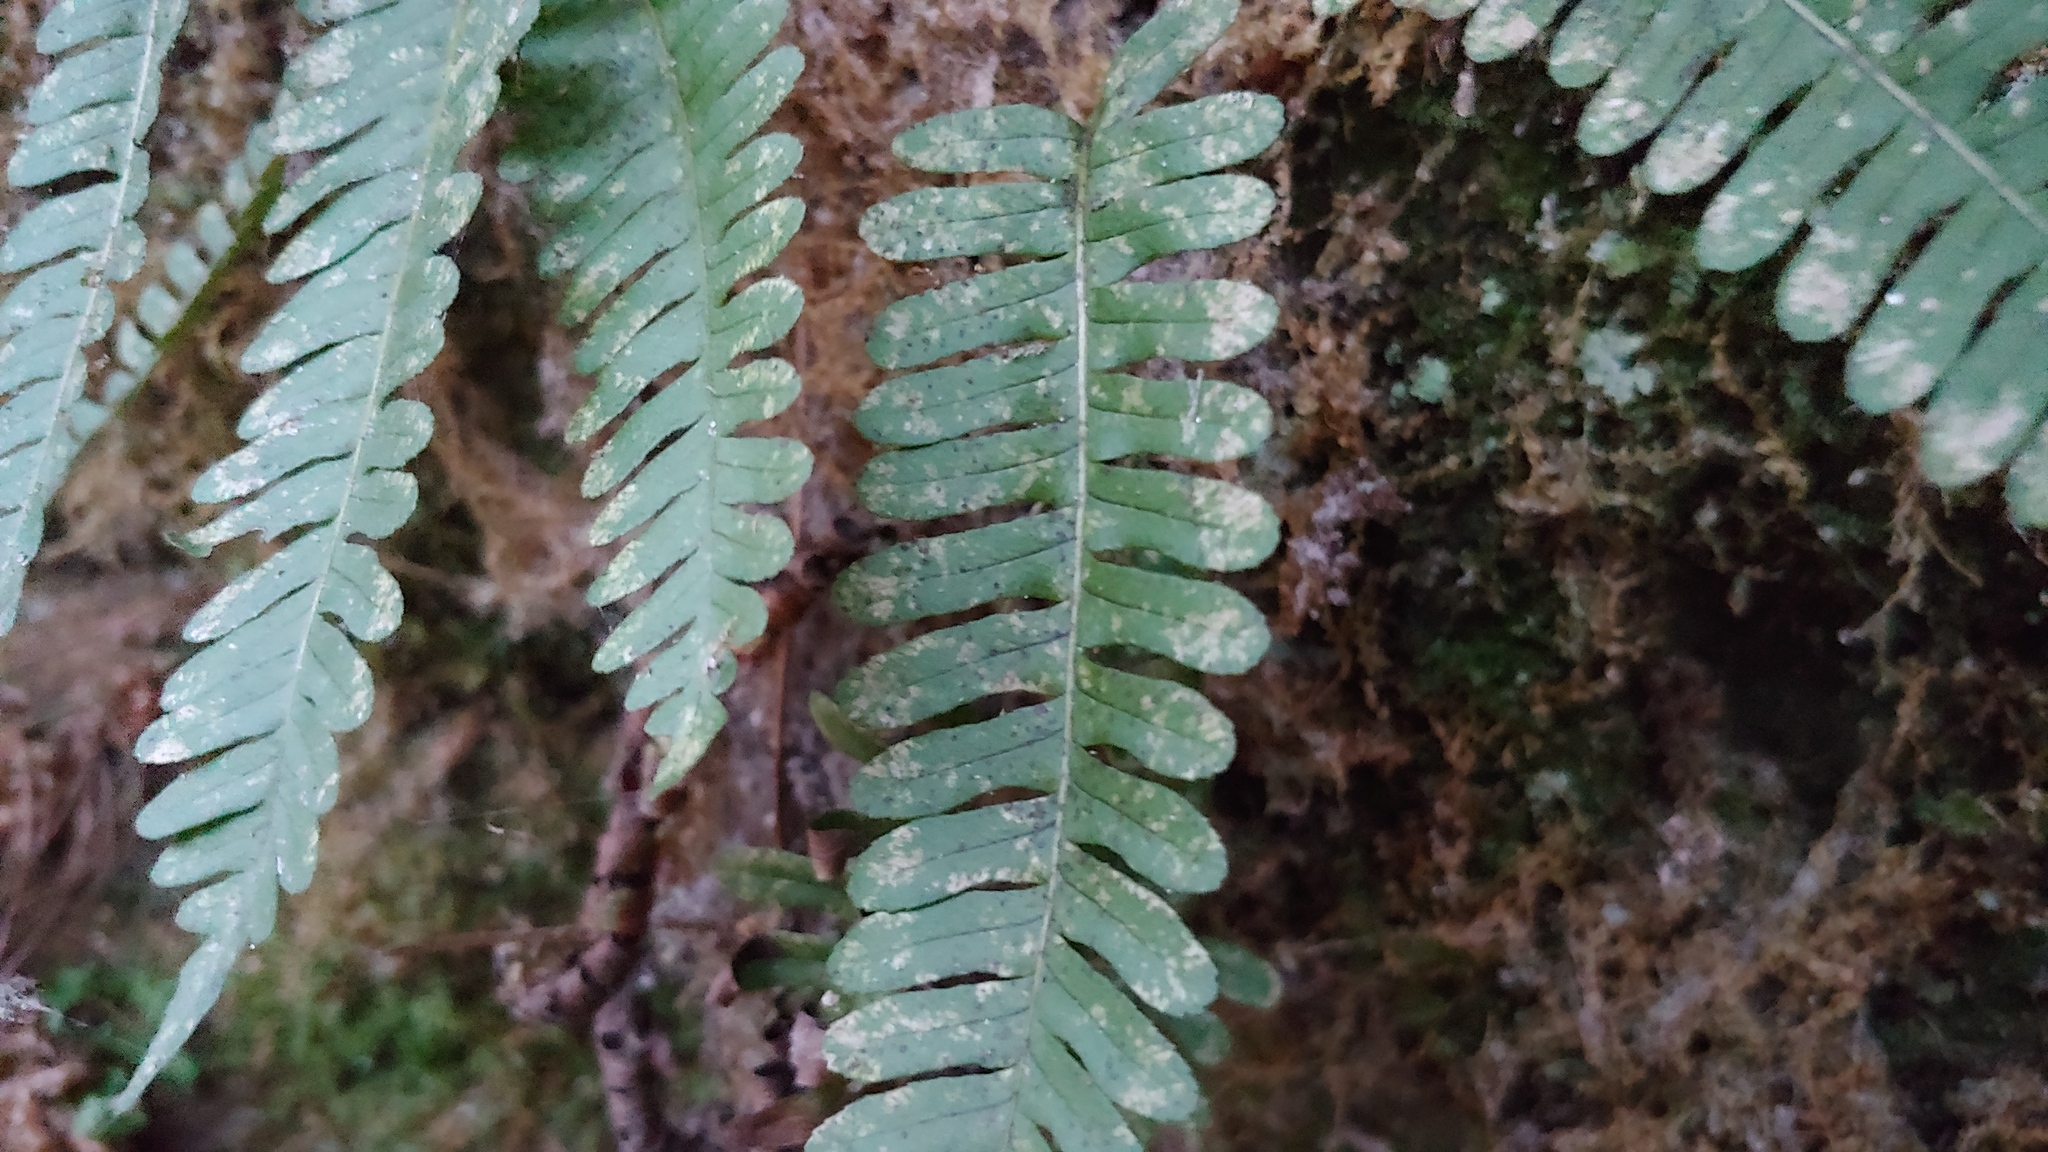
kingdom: Plantae
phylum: Tracheophyta
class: Polypodiopsida
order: Polypodiales
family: Polypodiaceae
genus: Polypodium
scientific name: Polypodium virginianum
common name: American wall fern
